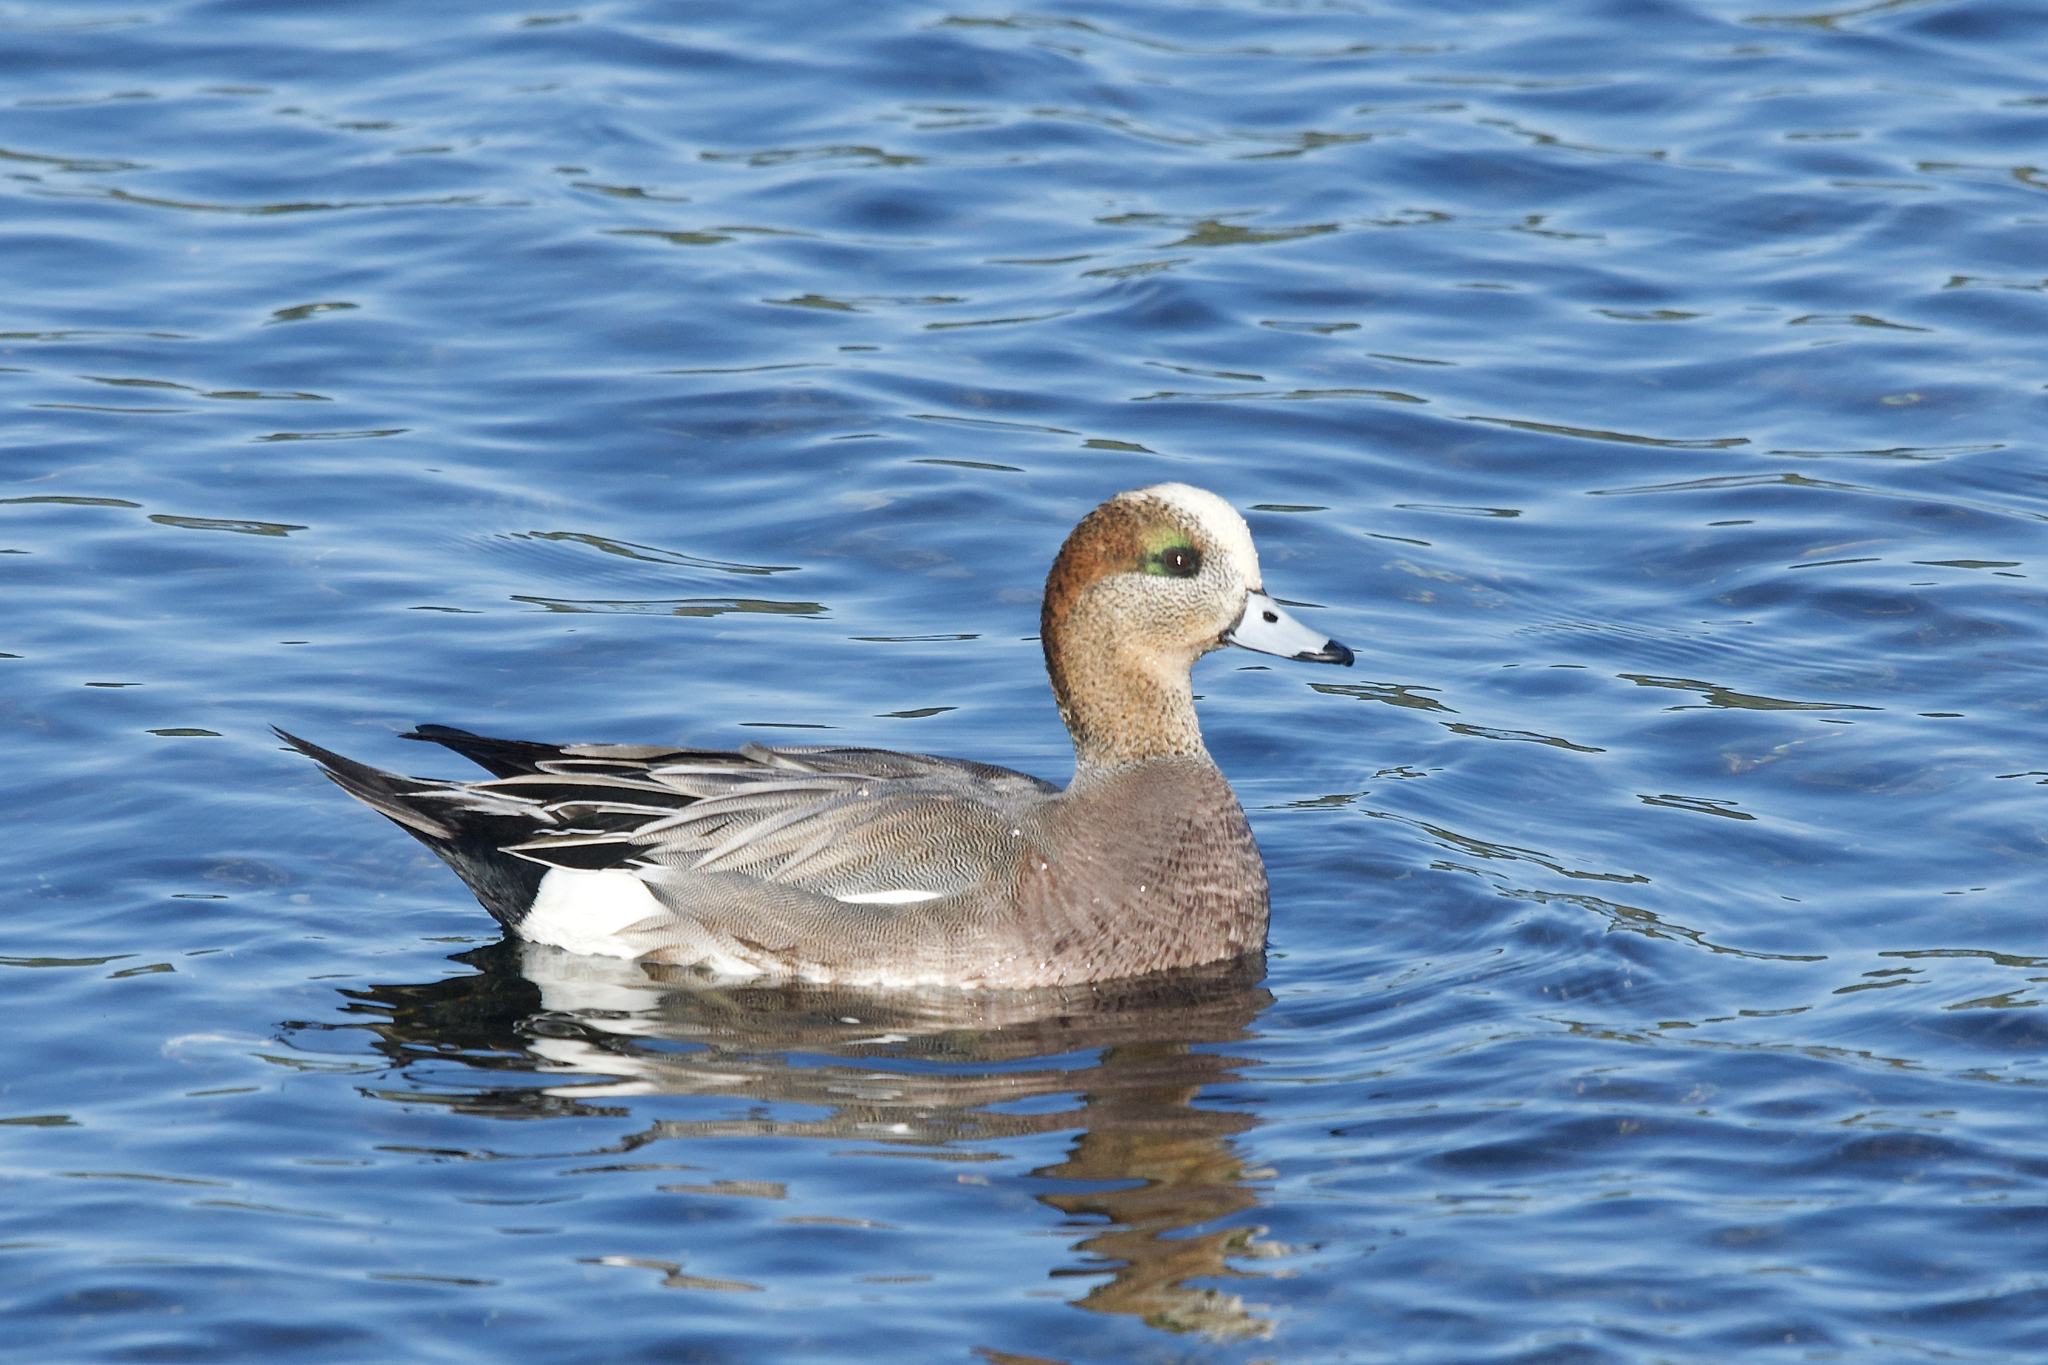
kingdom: Animalia
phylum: Chordata
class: Aves
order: Anseriformes
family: Anatidae
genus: Mareca
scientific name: Mareca
